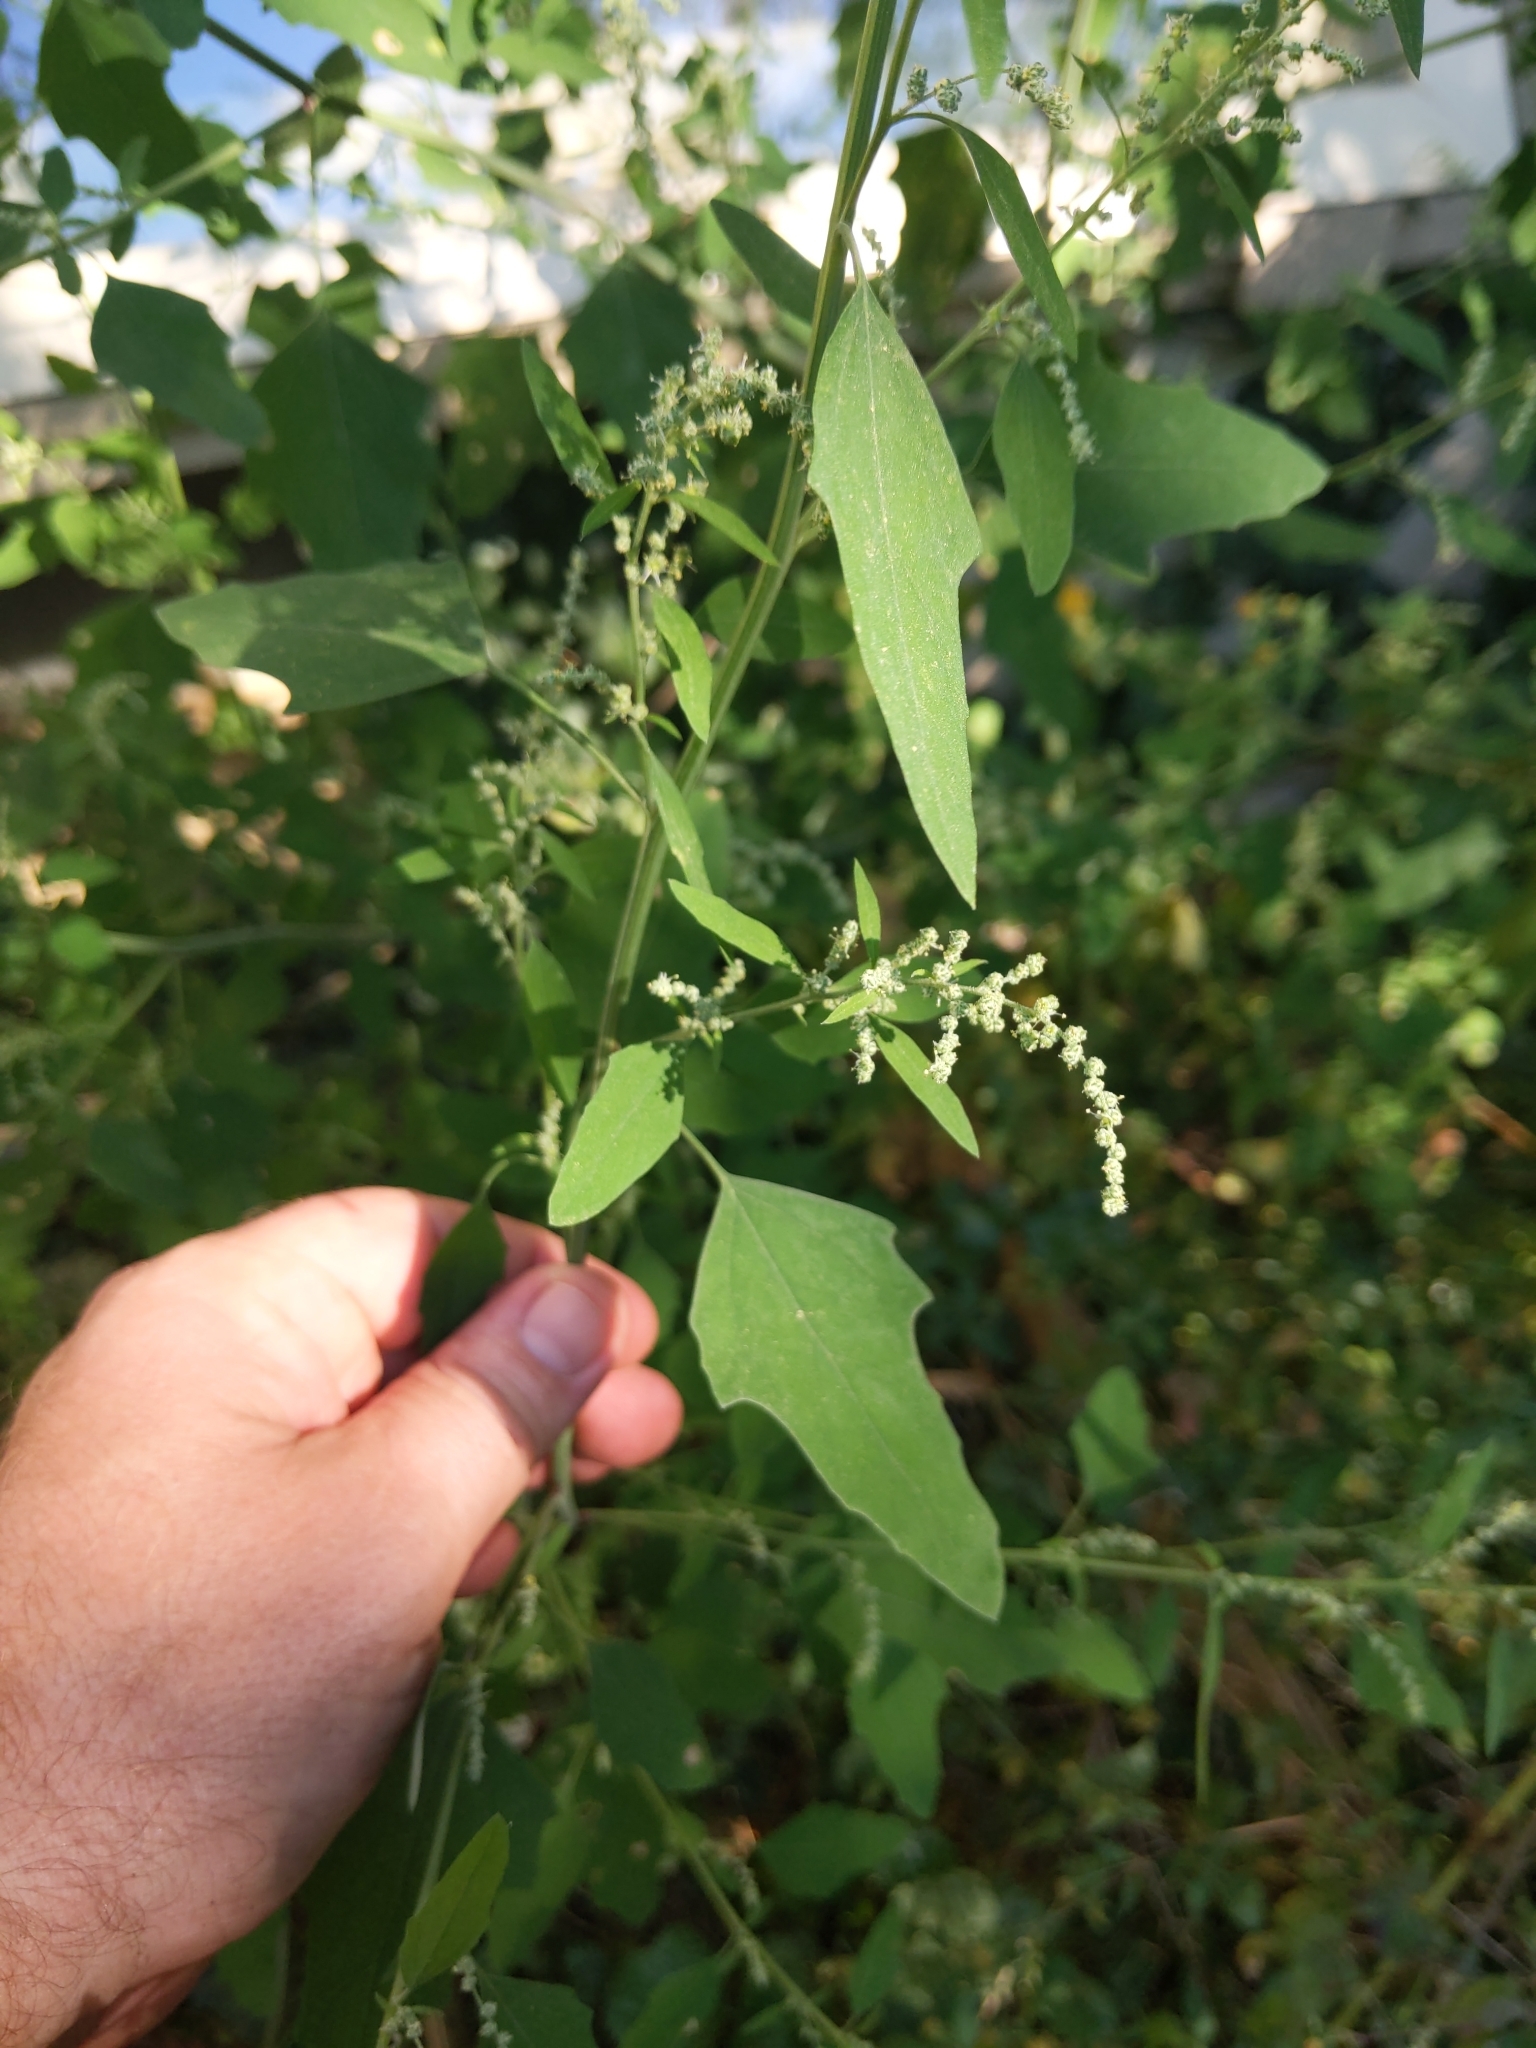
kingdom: Plantae
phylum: Tracheophyta
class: Magnoliopsida
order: Caryophyllales
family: Amaranthaceae
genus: Chenopodium
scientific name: Chenopodium album
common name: Fat-hen
